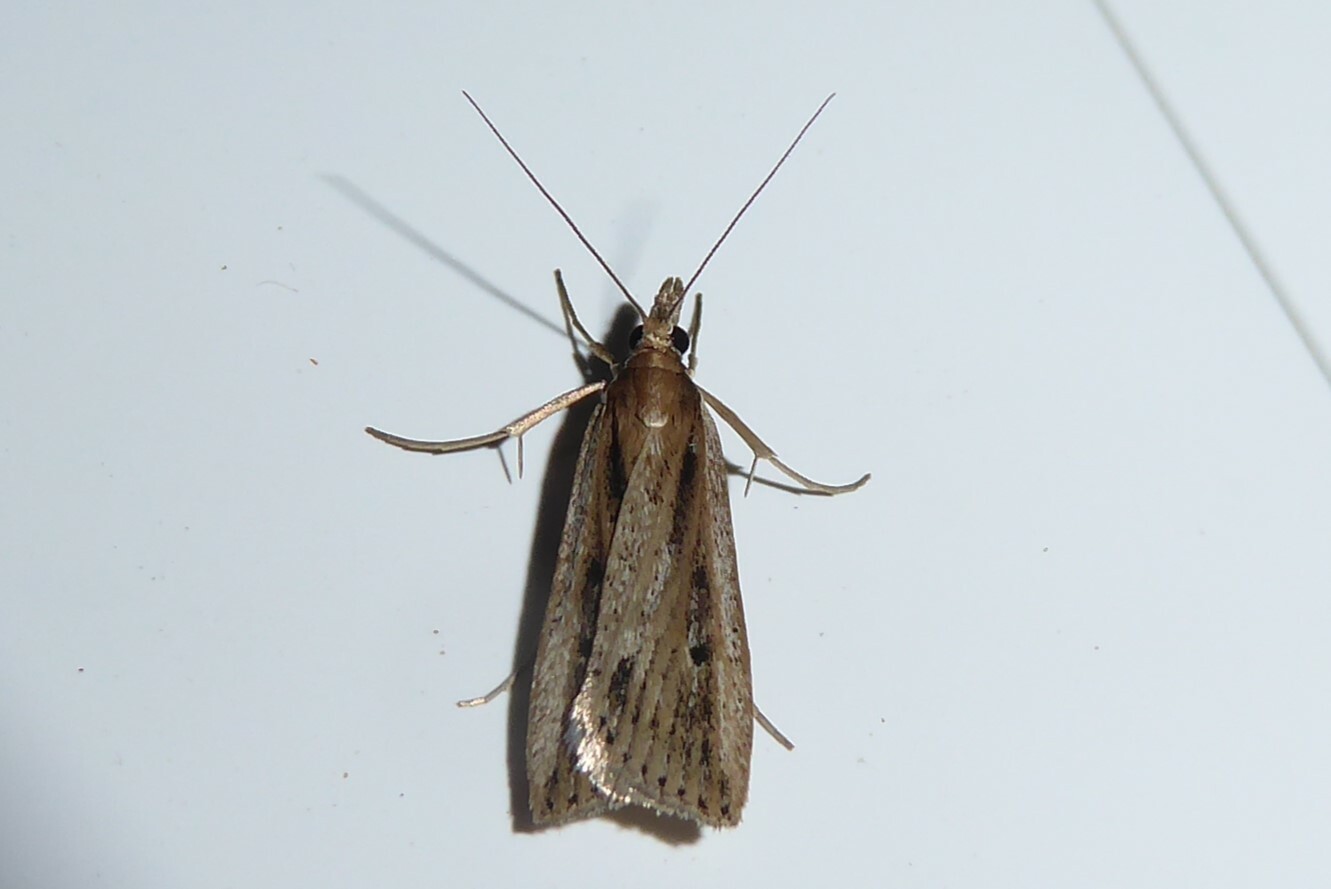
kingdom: Animalia
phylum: Arthropoda
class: Insecta
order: Lepidoptera
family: Crambidae
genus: Eudonia
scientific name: Eudonia sabulosella
